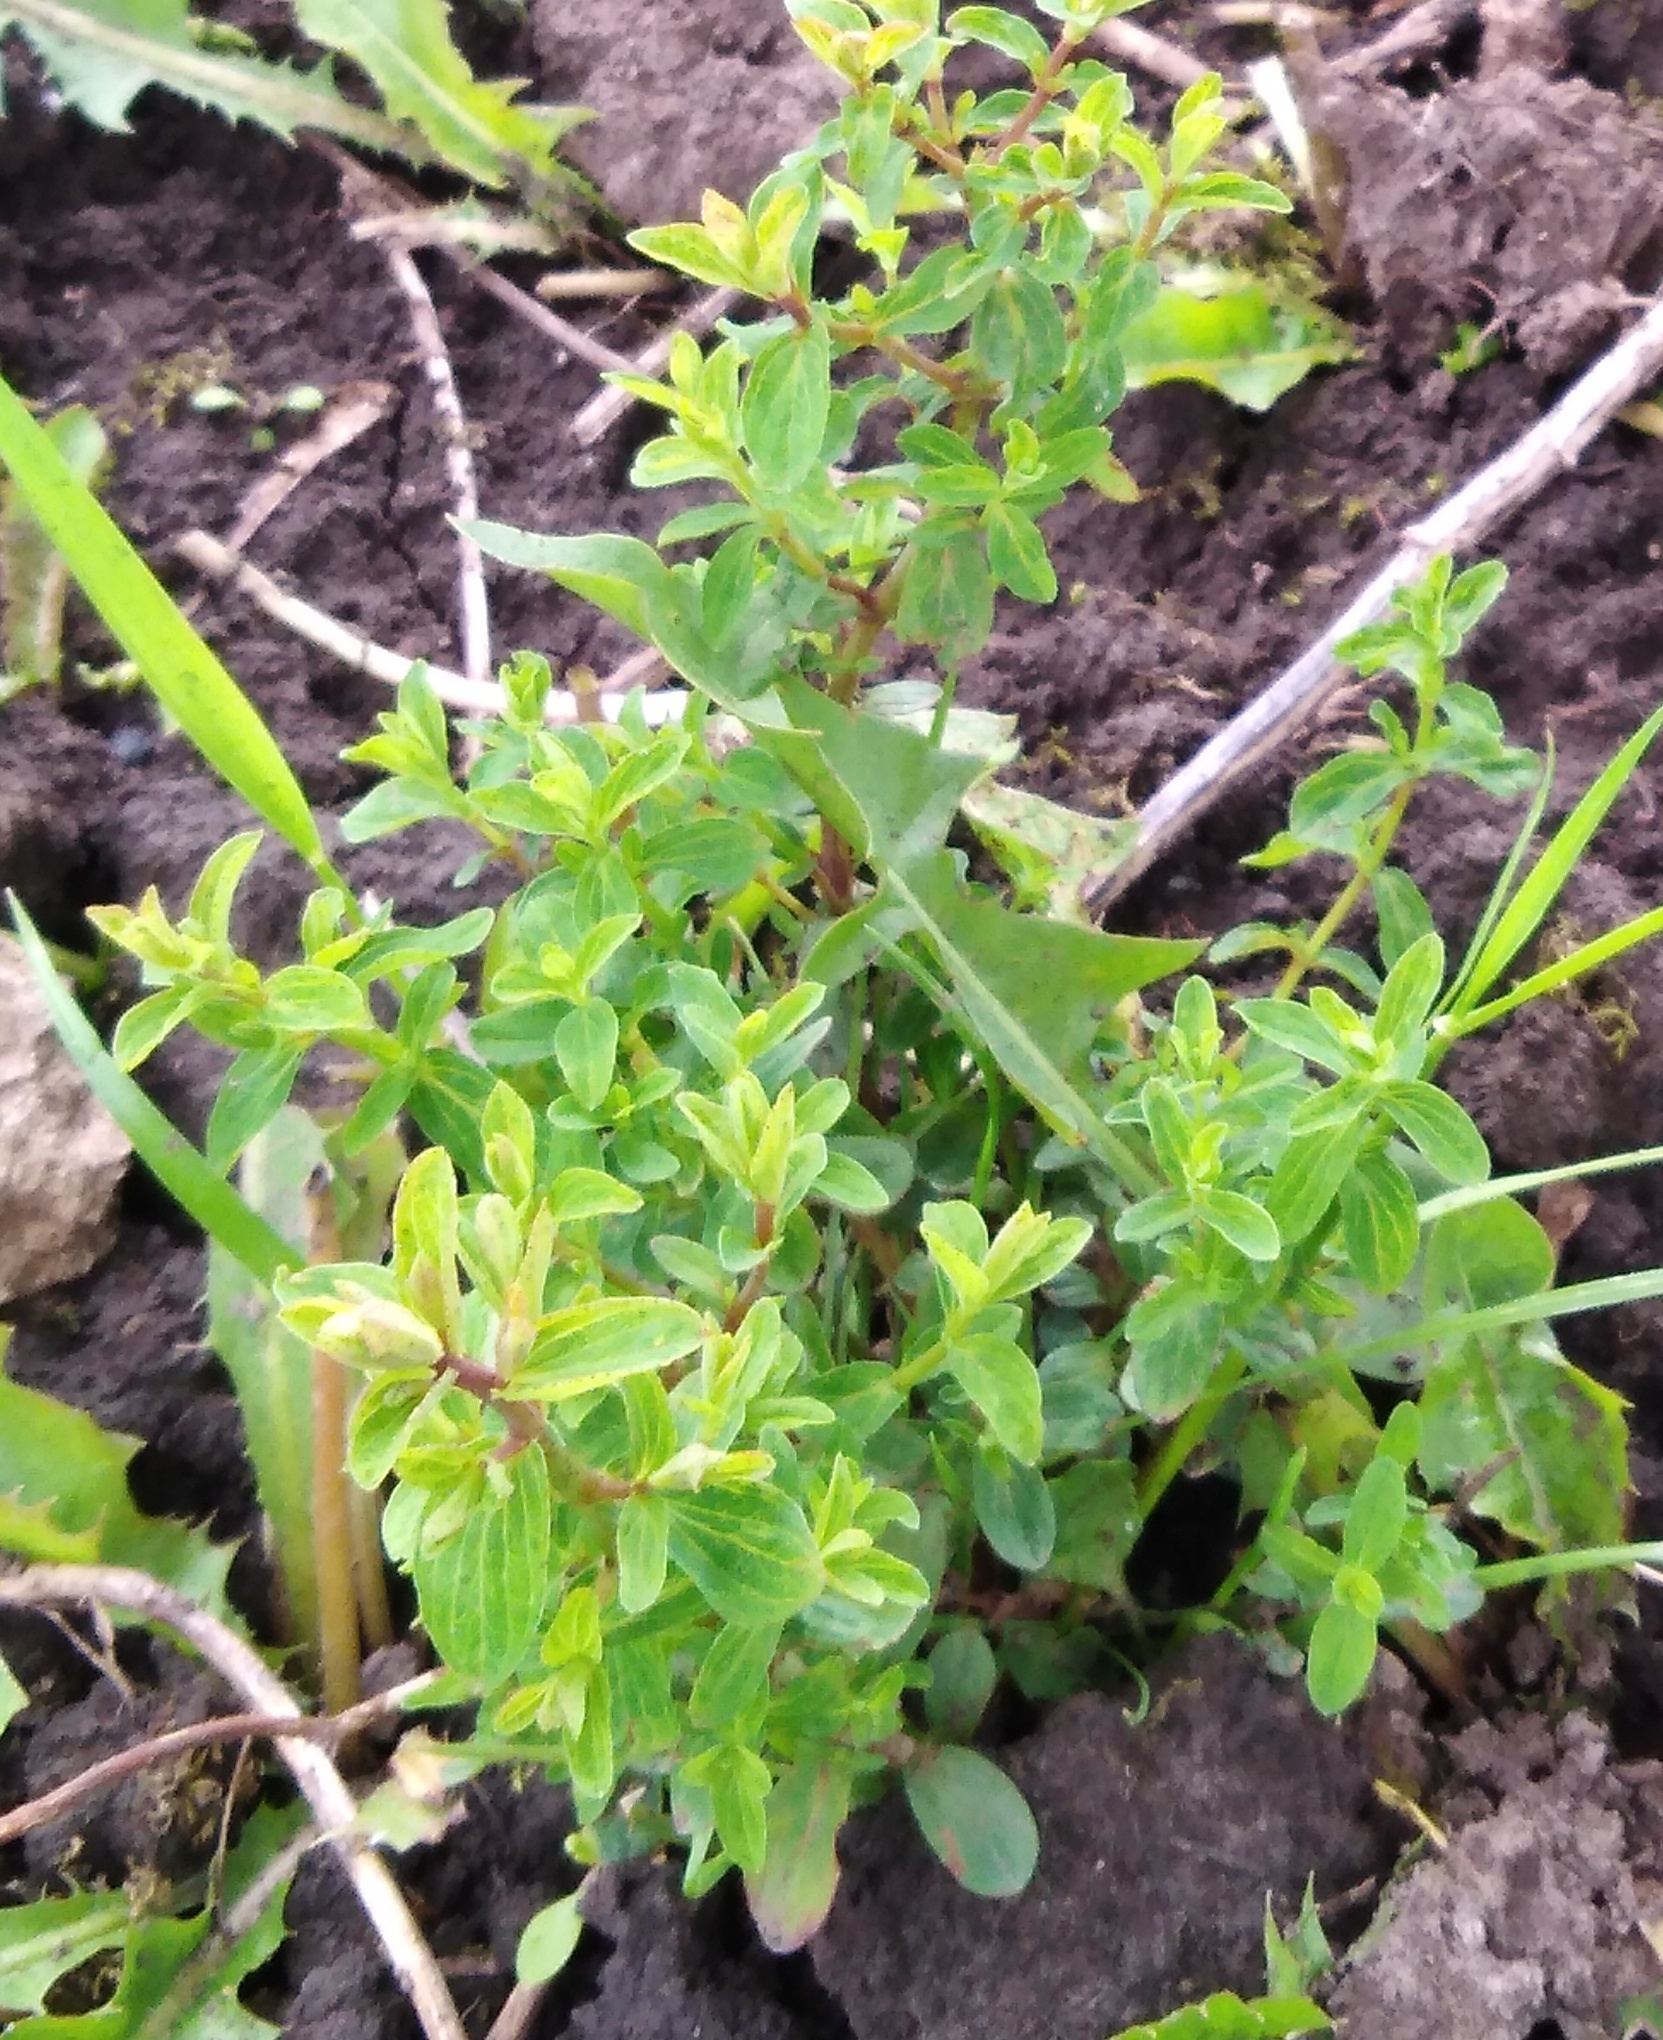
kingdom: Plantae
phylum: Tracheophyta
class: Magnoliopsida
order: Malpighiales
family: Hypericaceae
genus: Hypericum
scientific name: Hypericum perforatum
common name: Common st. johnswort
